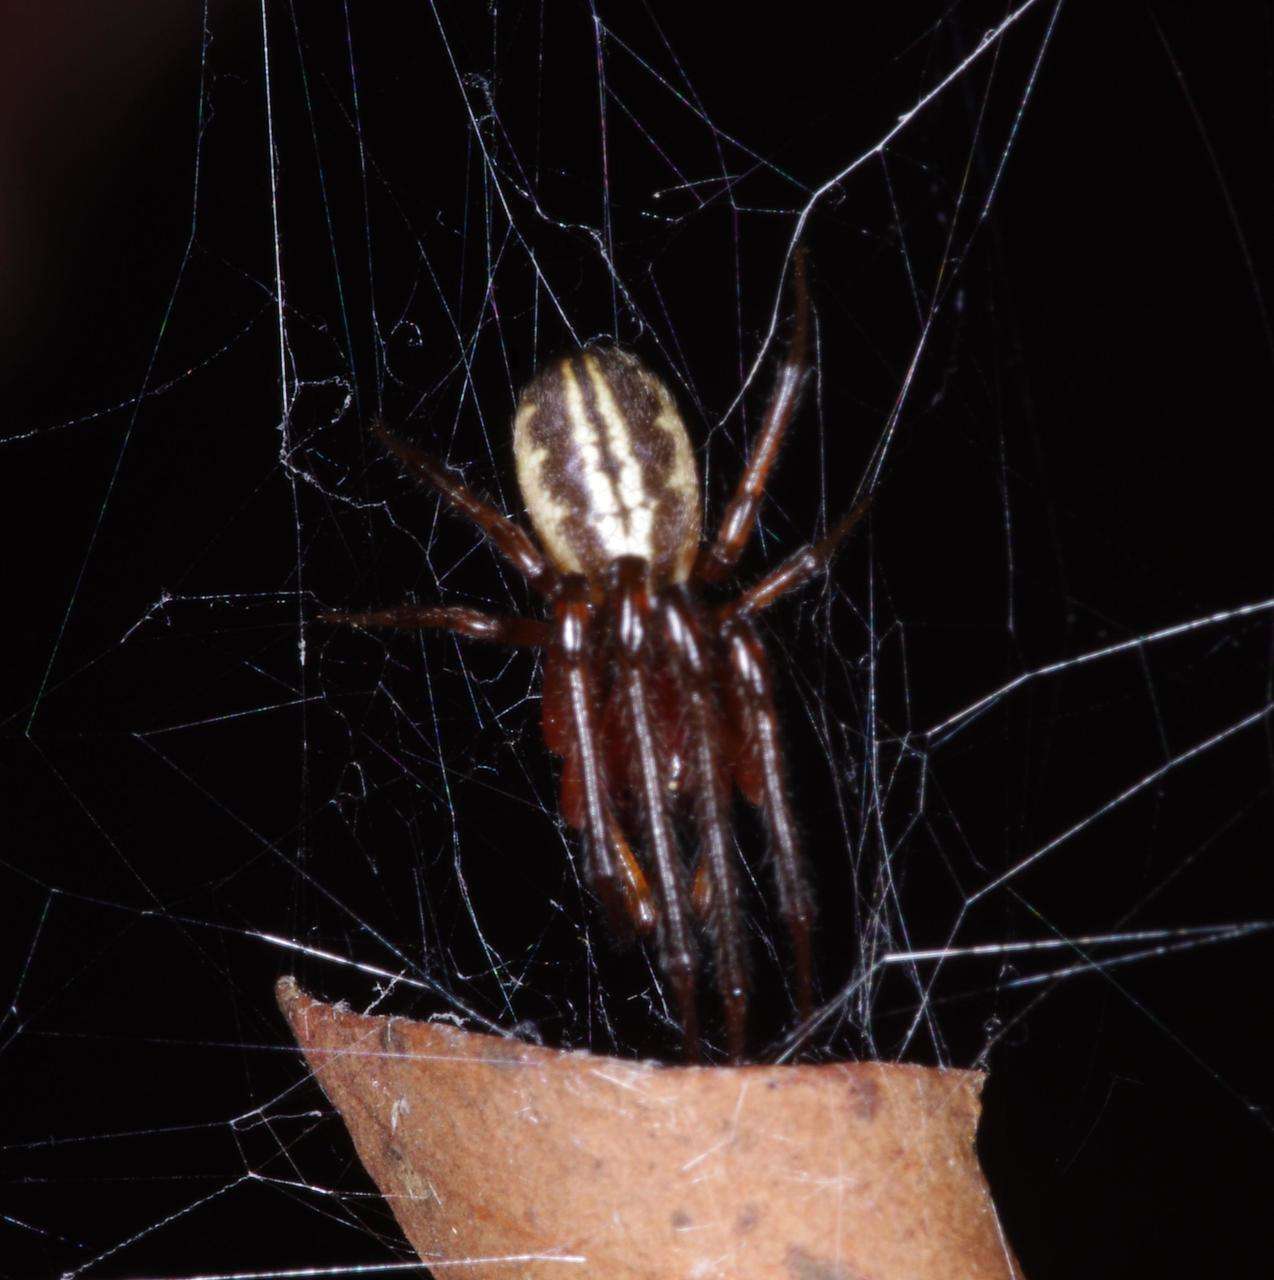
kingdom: Animalia
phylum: Arthropoda
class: Arachnida
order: Araneae
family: Araneidae
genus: Phonognatha
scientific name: Phonognatha graeffei
